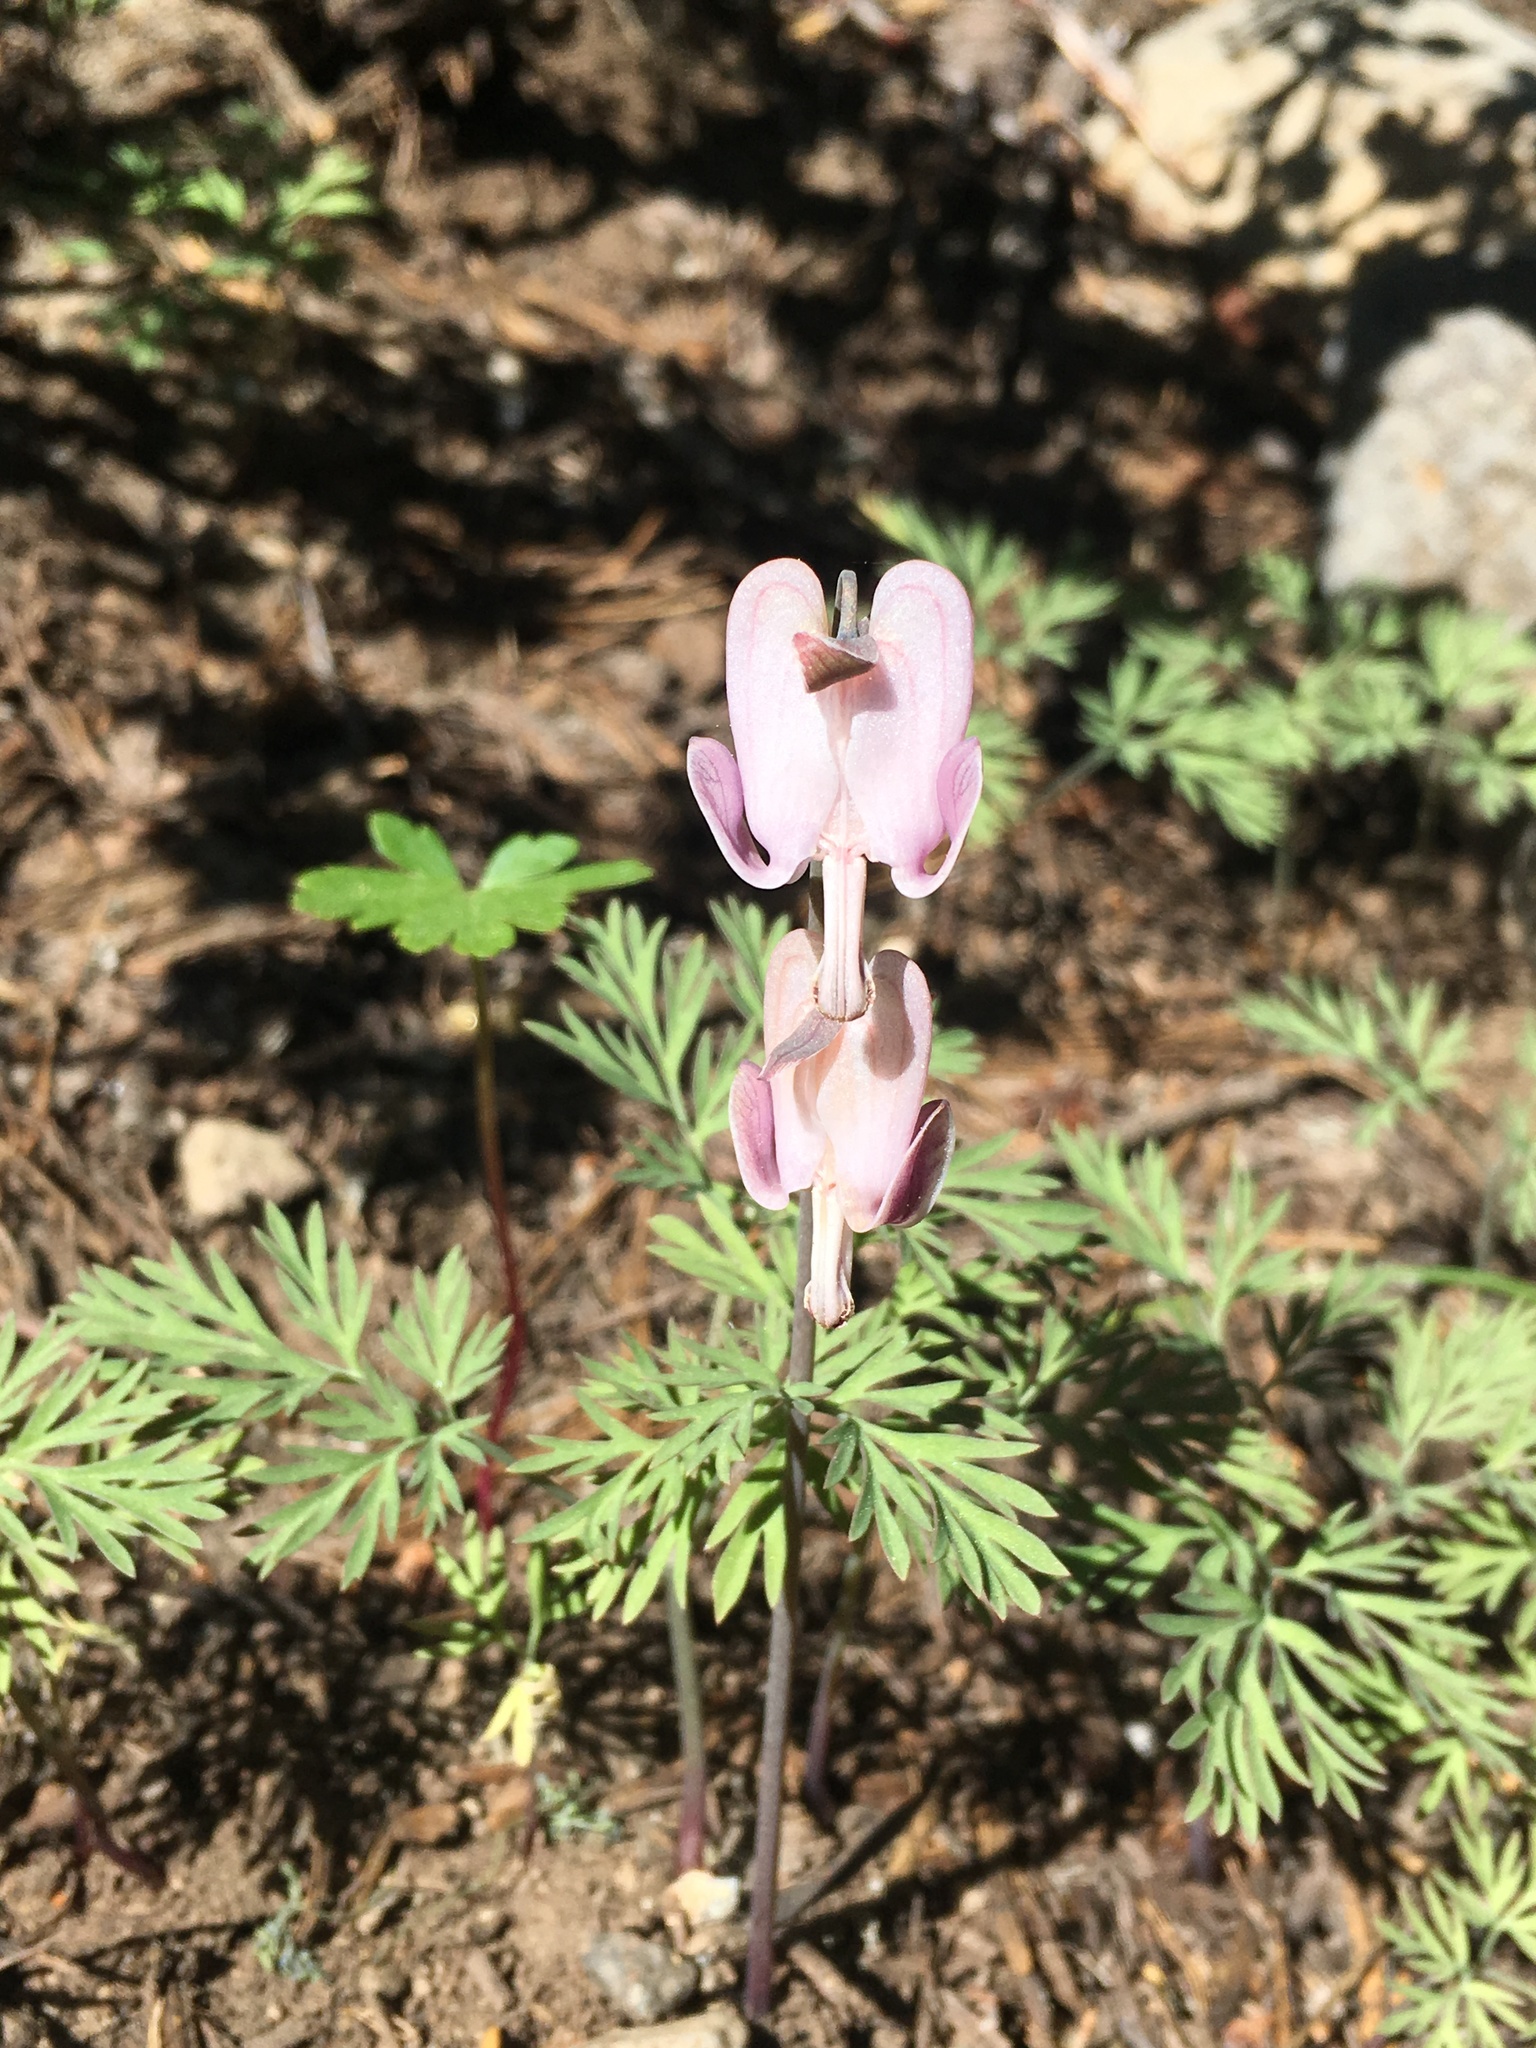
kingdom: Plantae
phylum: Tracheophyta
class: Magnoliopsida
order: Ranunculales
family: Papaveraceae
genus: Dicentra
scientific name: Dicentra pauciflora
